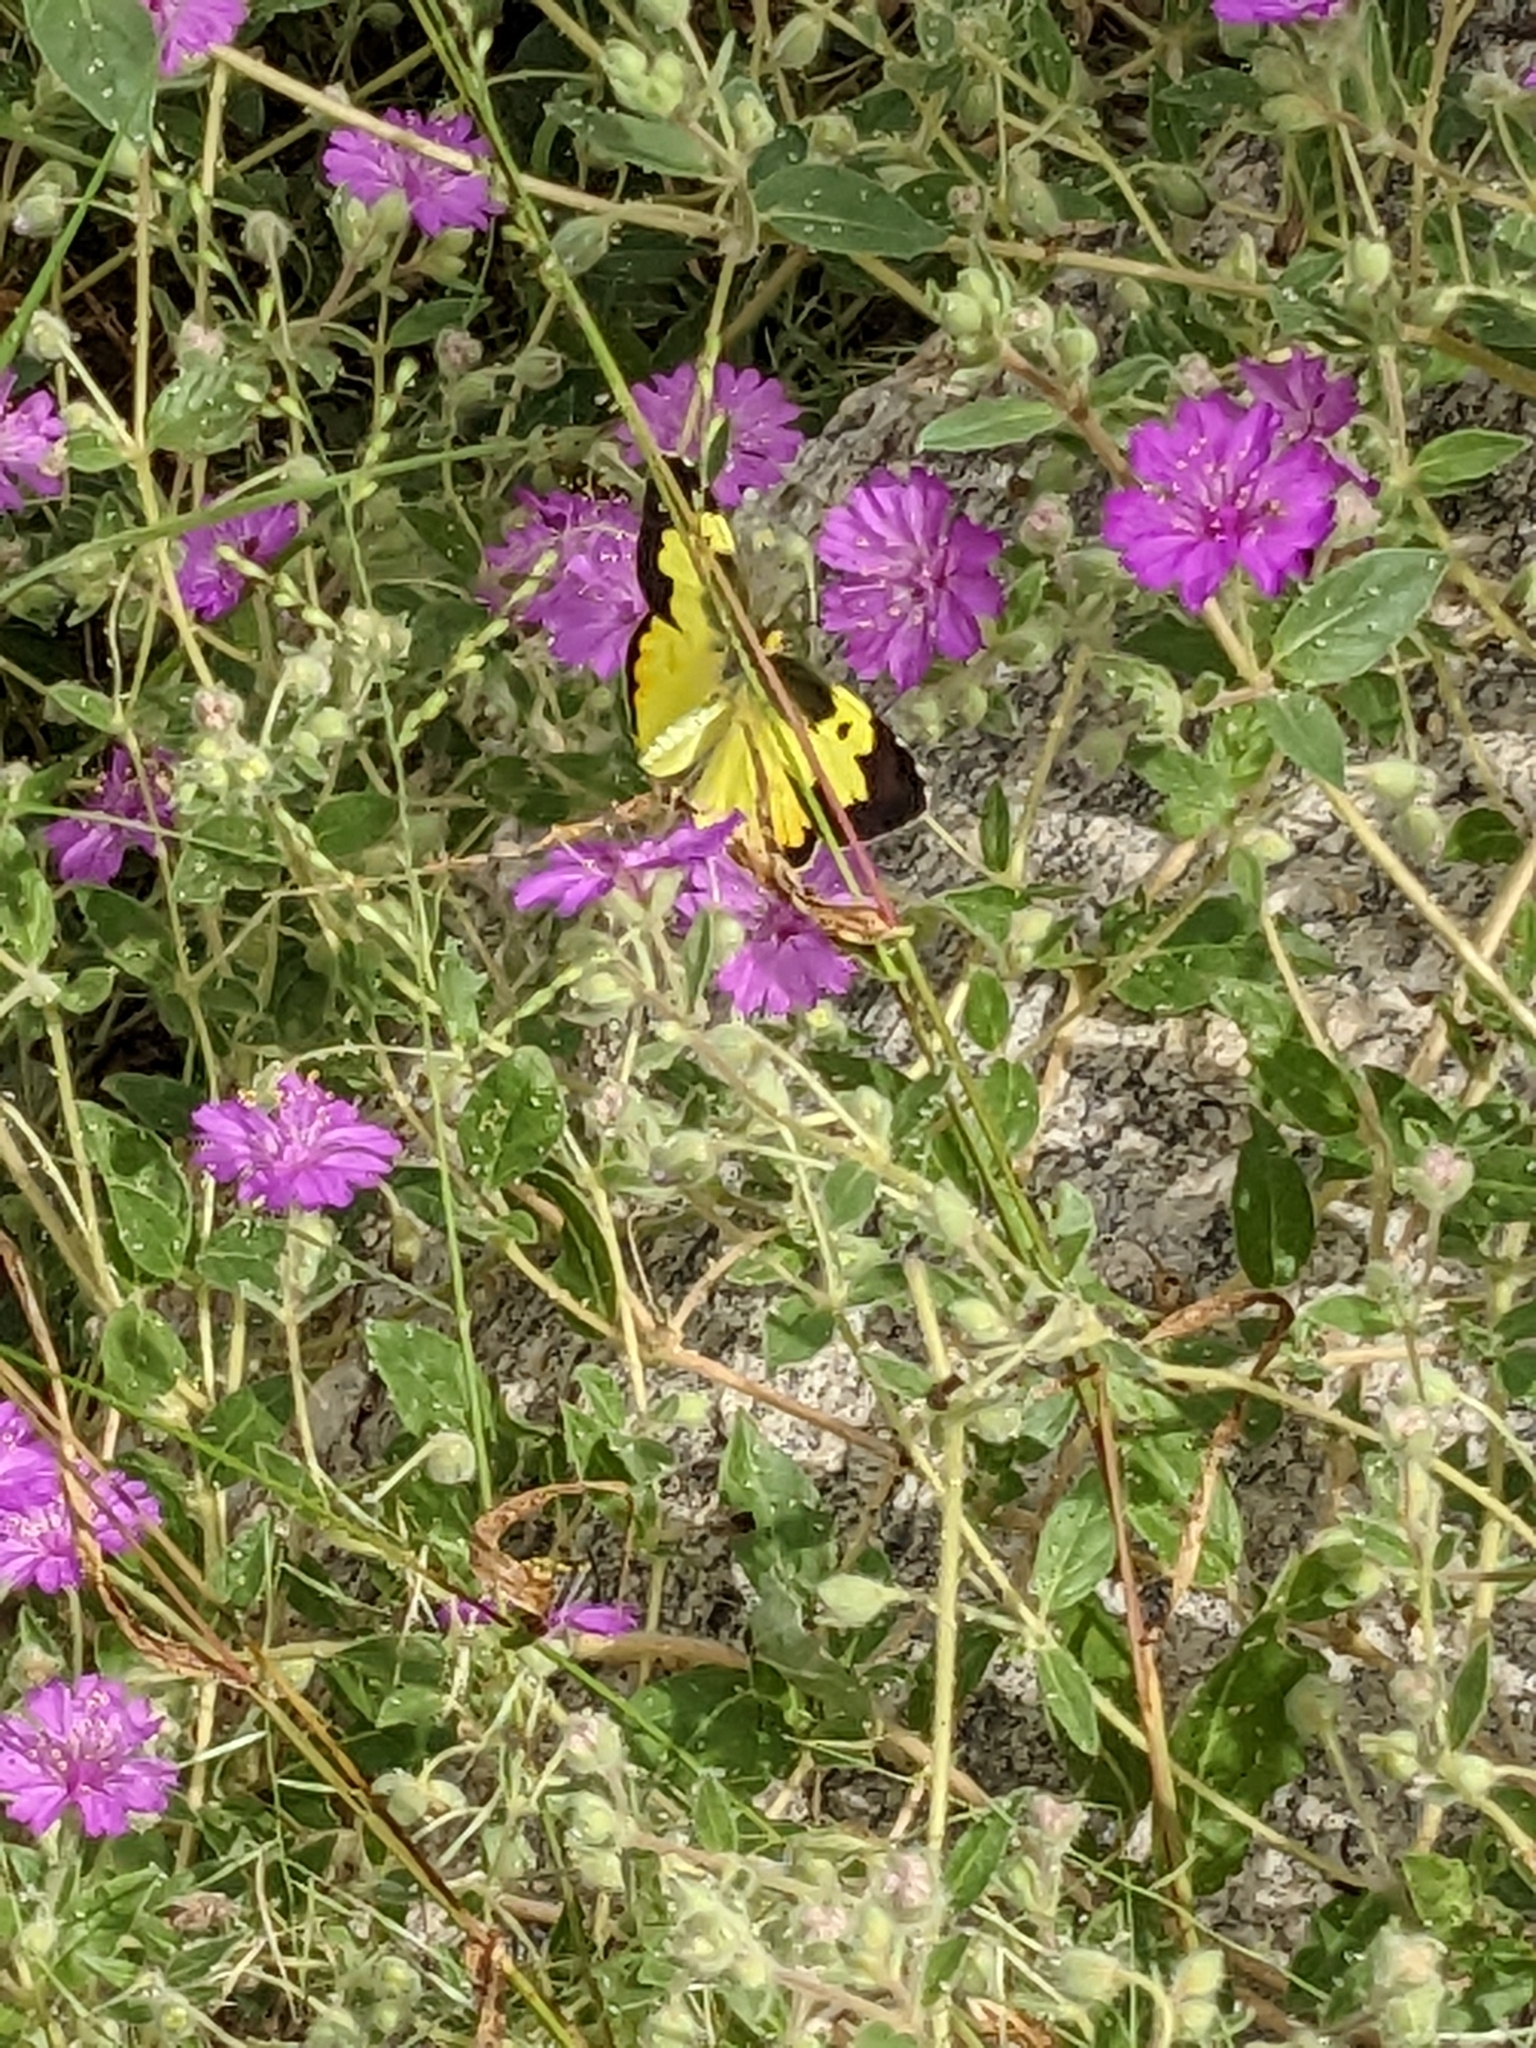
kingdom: Animalia
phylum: Arthropoda
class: Insecta
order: Lepidoptera
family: Pieridae
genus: Zerene
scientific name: Zerene cesonia
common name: Southern dogface
